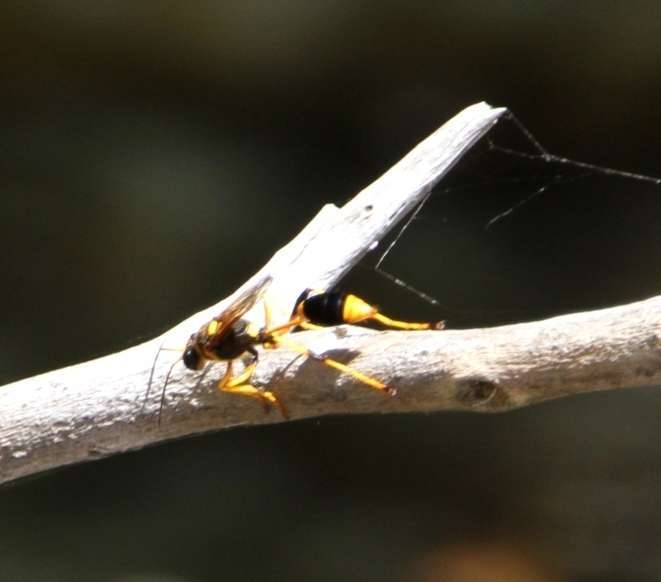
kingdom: Animalia
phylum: Arthropoda
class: Insecta
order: Hymenoptera
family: Sphecidae
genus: Sceliphron
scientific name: Sceliphron laetum
